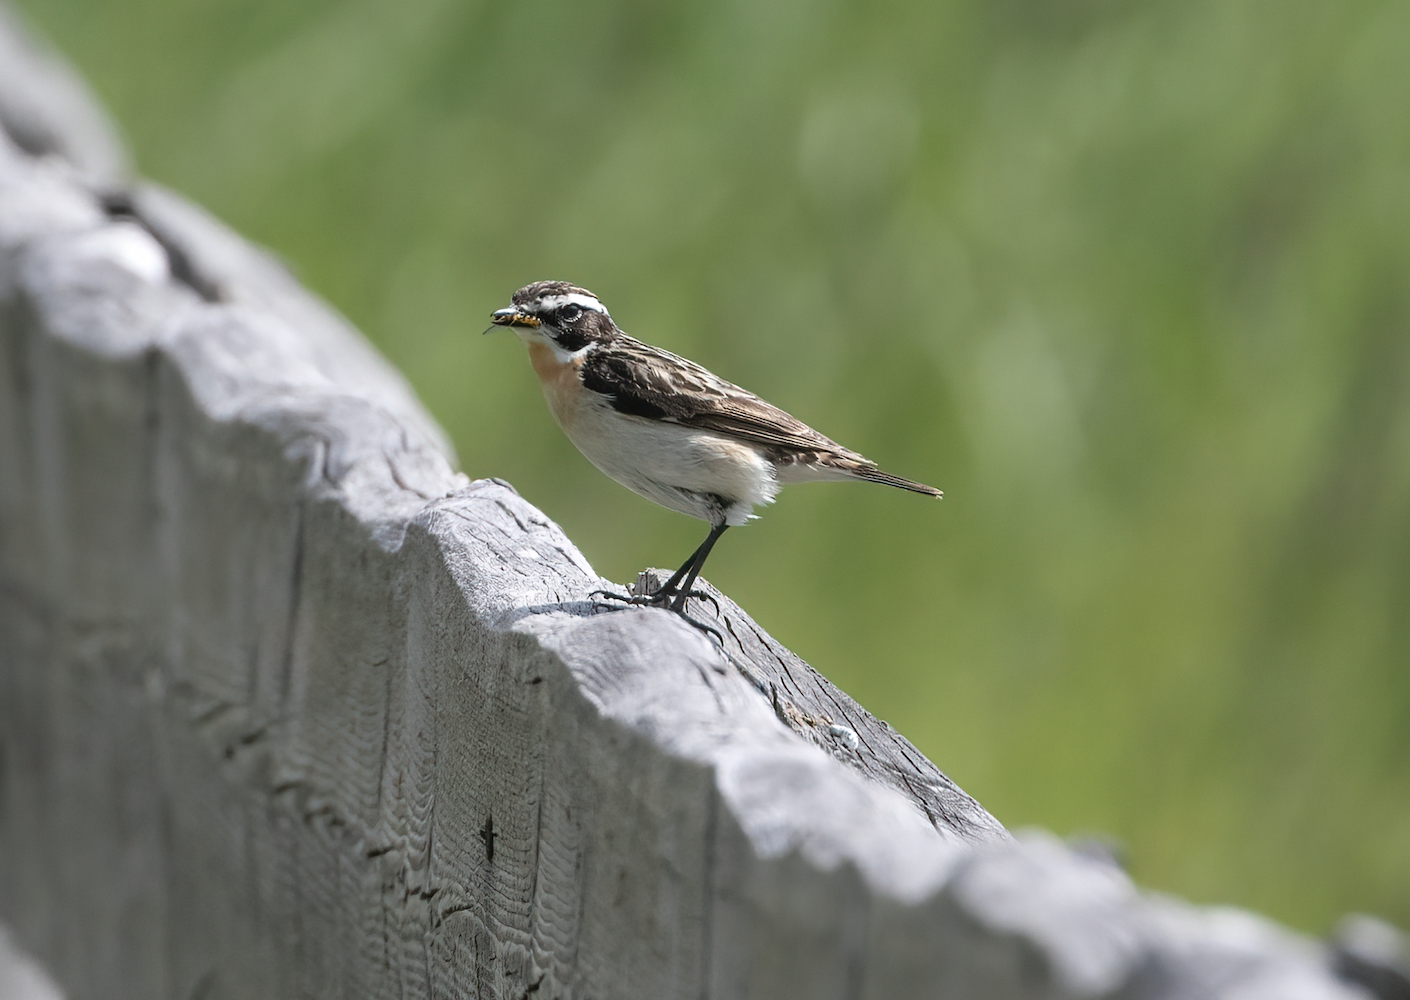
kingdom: Animalia
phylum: Chordata
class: Aves
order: Passeriformes
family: Muscicapidae
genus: Saxicola
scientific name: Saxicola rubetra
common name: Whinchat
